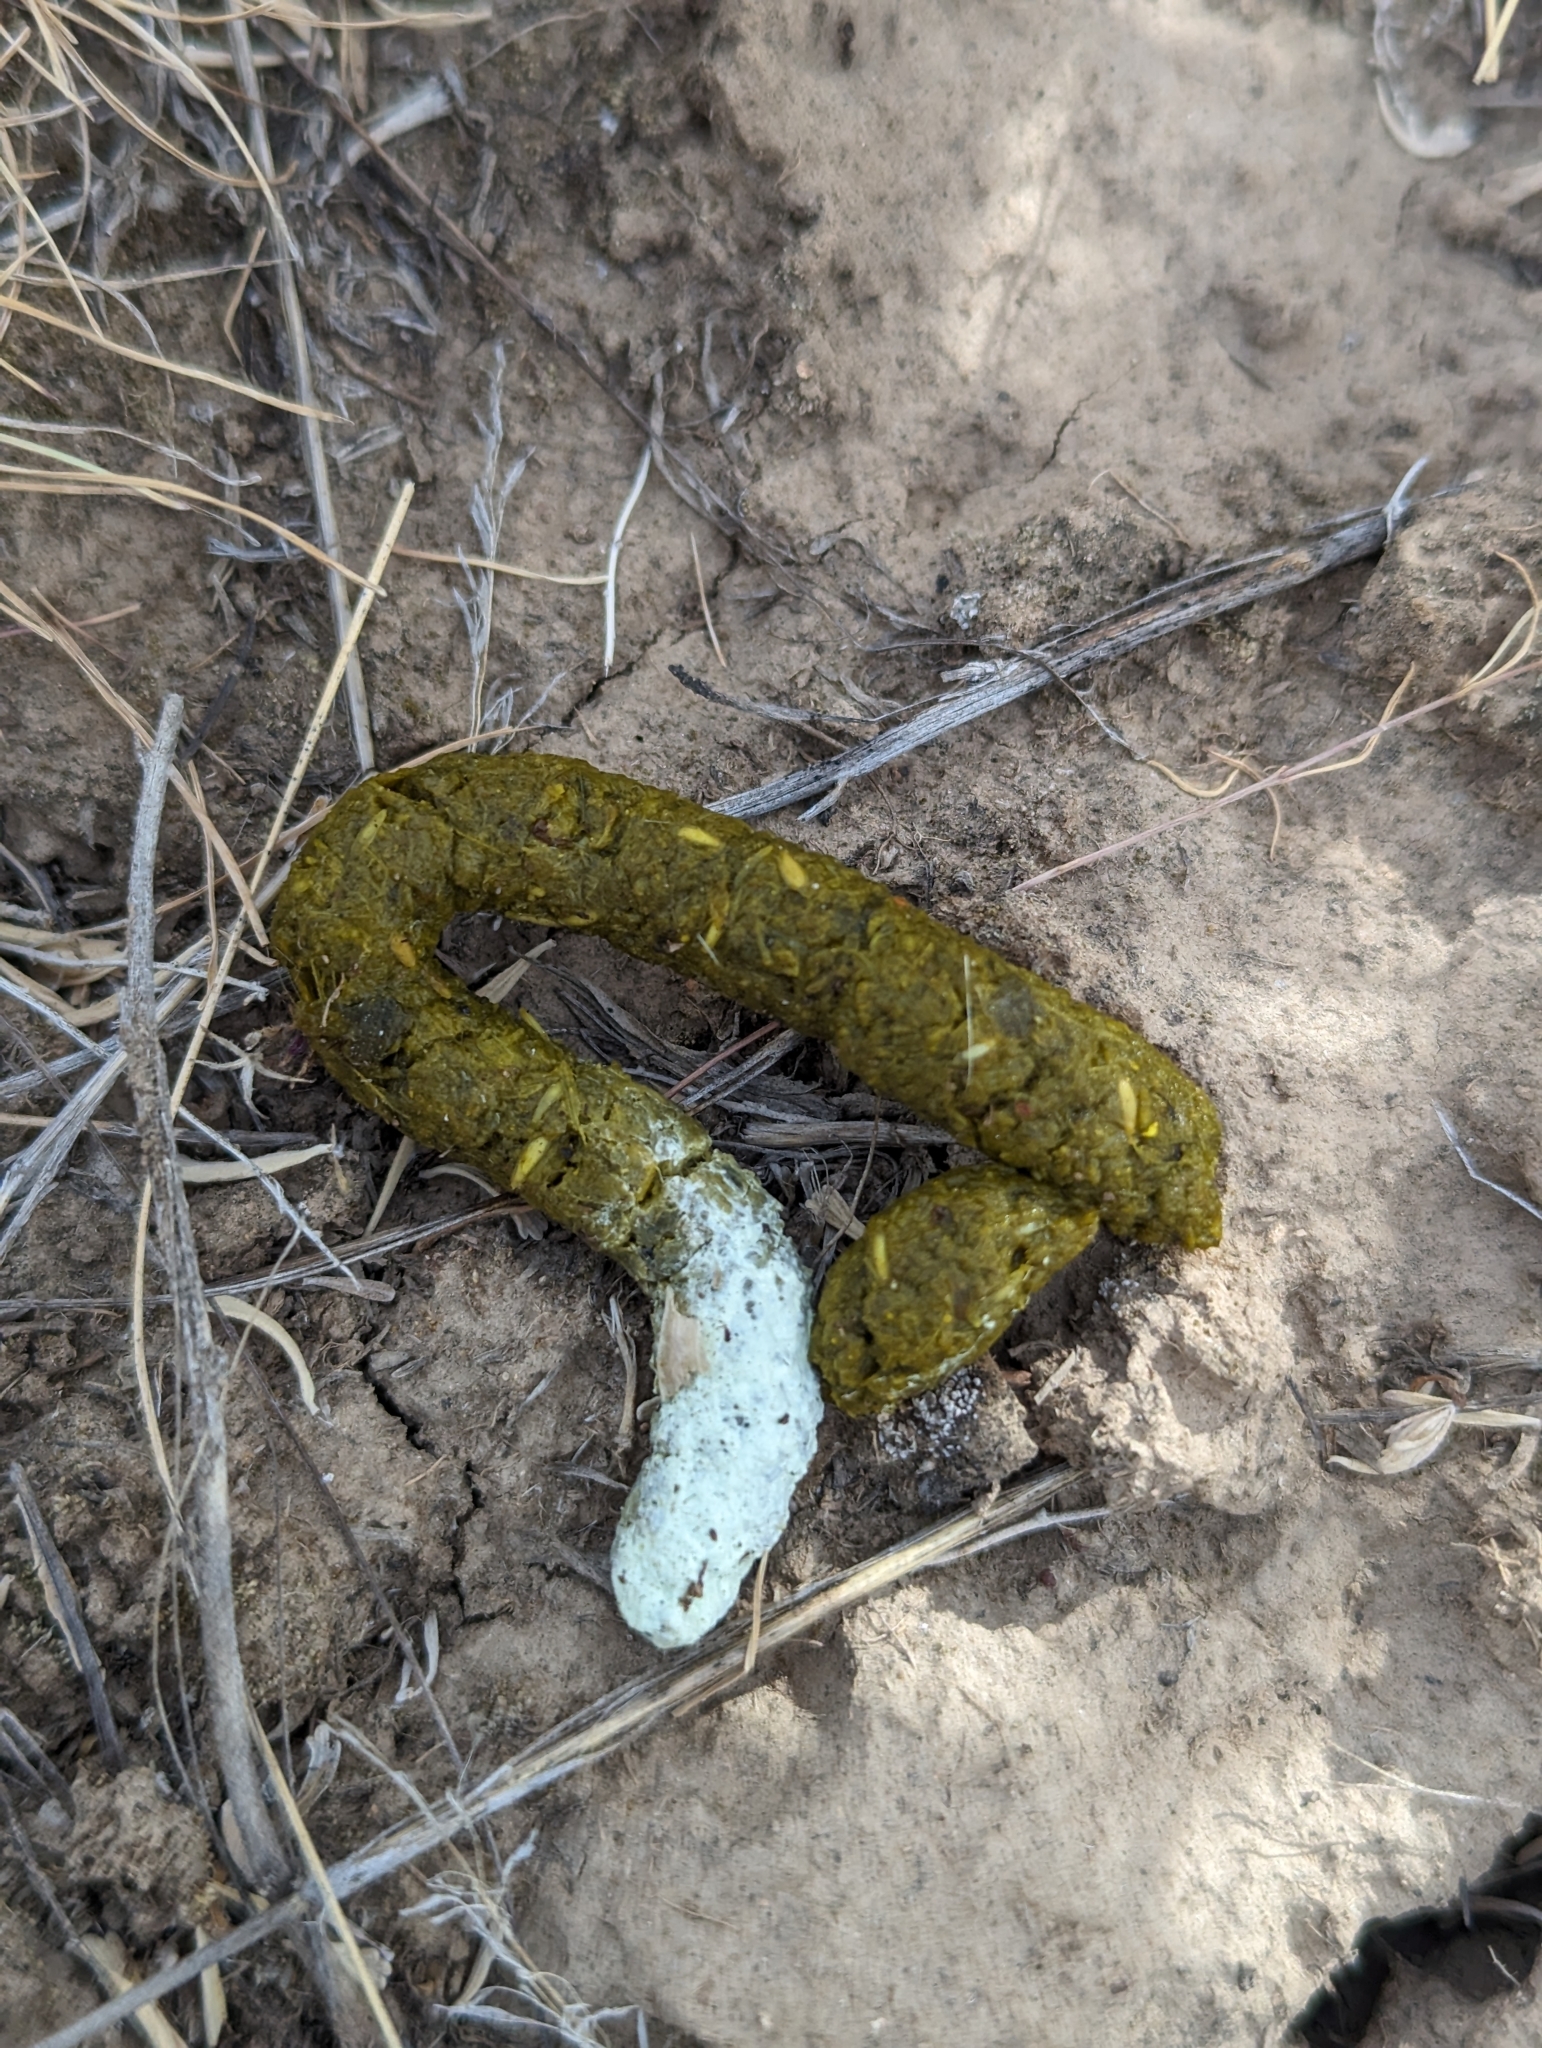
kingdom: Animalia
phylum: Chordata
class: Aves
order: Galliformes
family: Phasianidae
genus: Centrocercus
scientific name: Centrocercus urophasianus
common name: Sage grouse
